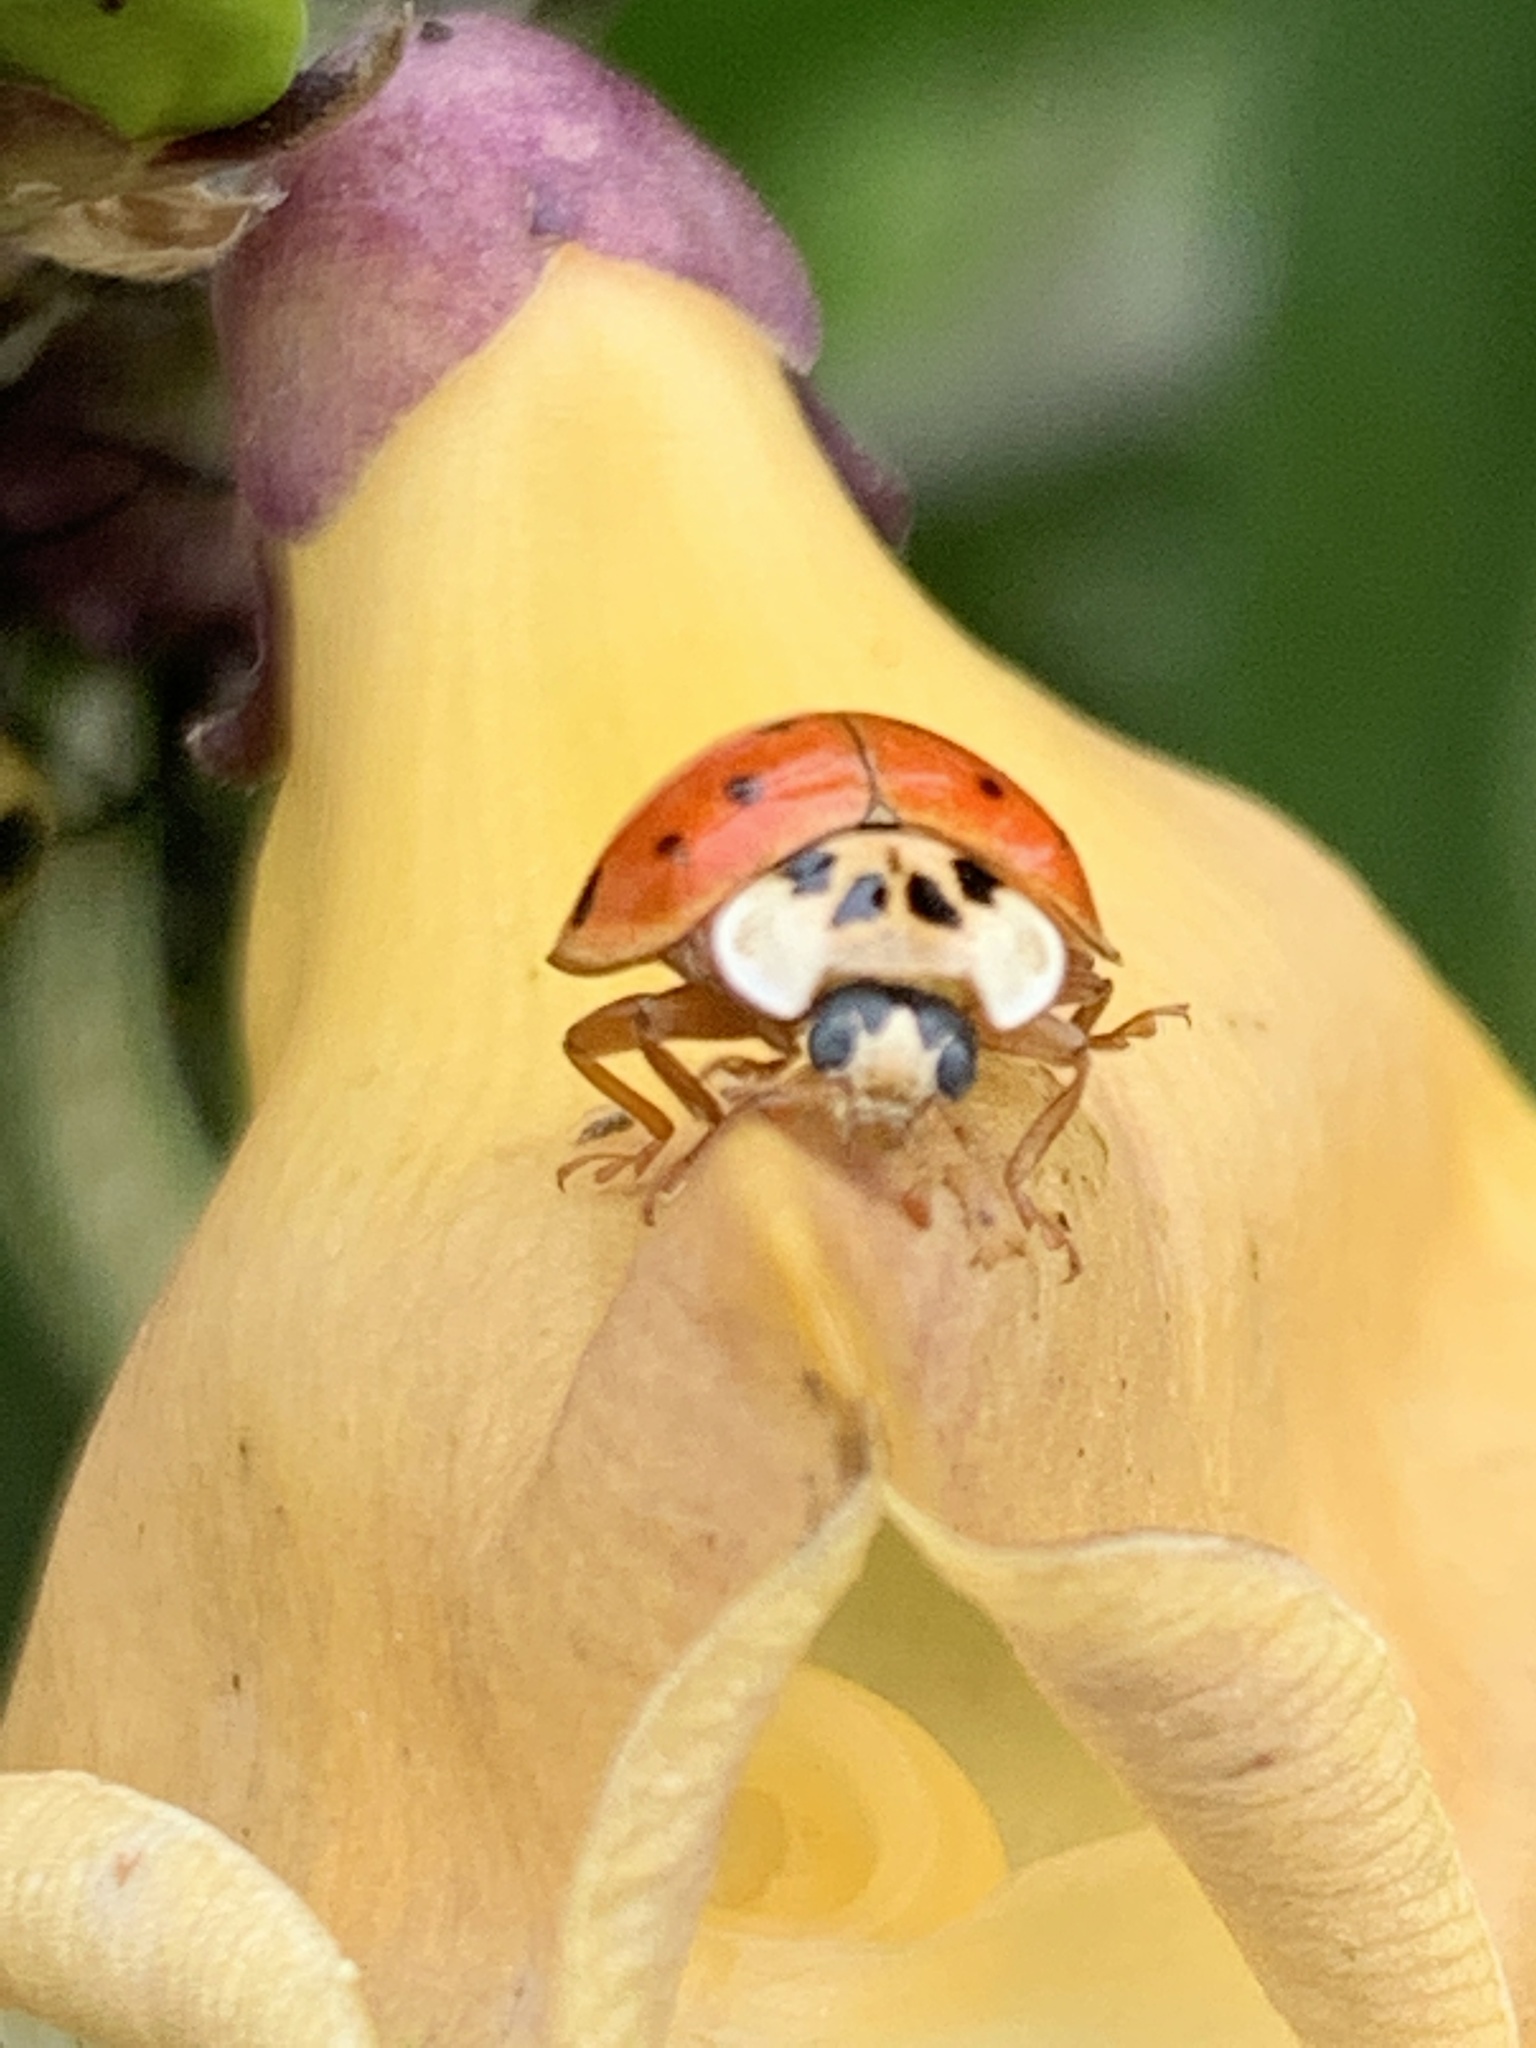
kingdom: Animalia
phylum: Arthropoda
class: Insecta
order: Coleoptera
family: Coccinellidae
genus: Harmonia
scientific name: Harmonia axyridis
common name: Harlequin ladybird
